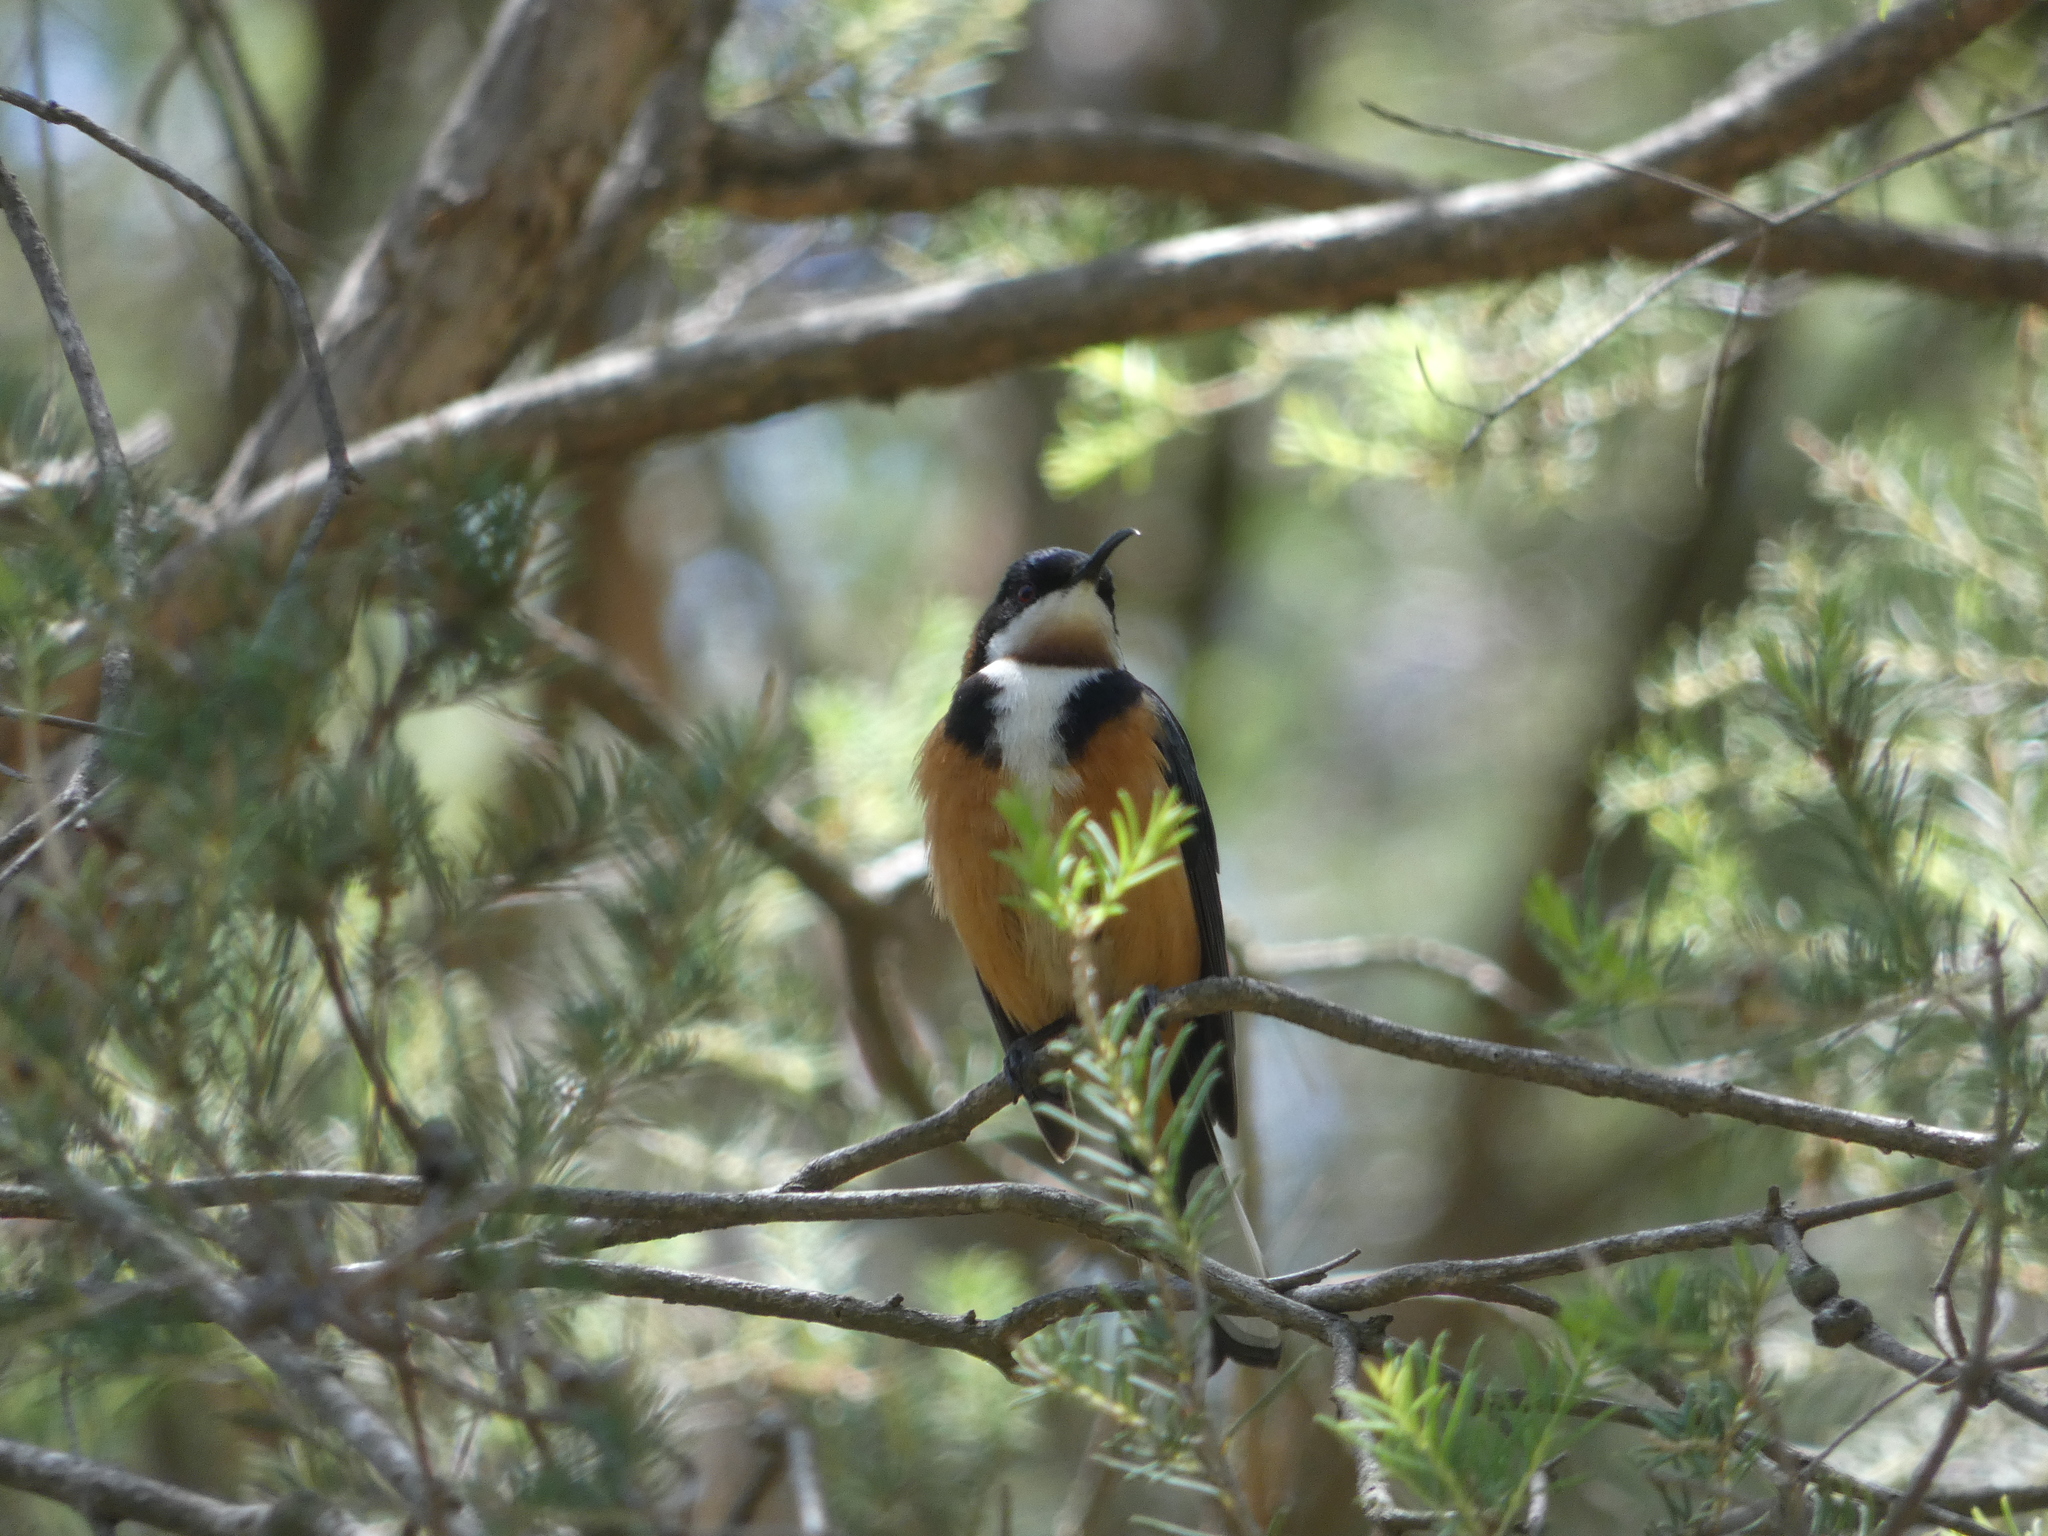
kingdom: Animalia
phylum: Chordata
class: Aves
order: Passeriformes
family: Meliphagidae
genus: Acanthorhynchus
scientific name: Acanthorhynchus tenuirostris
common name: Eastern spinebill
